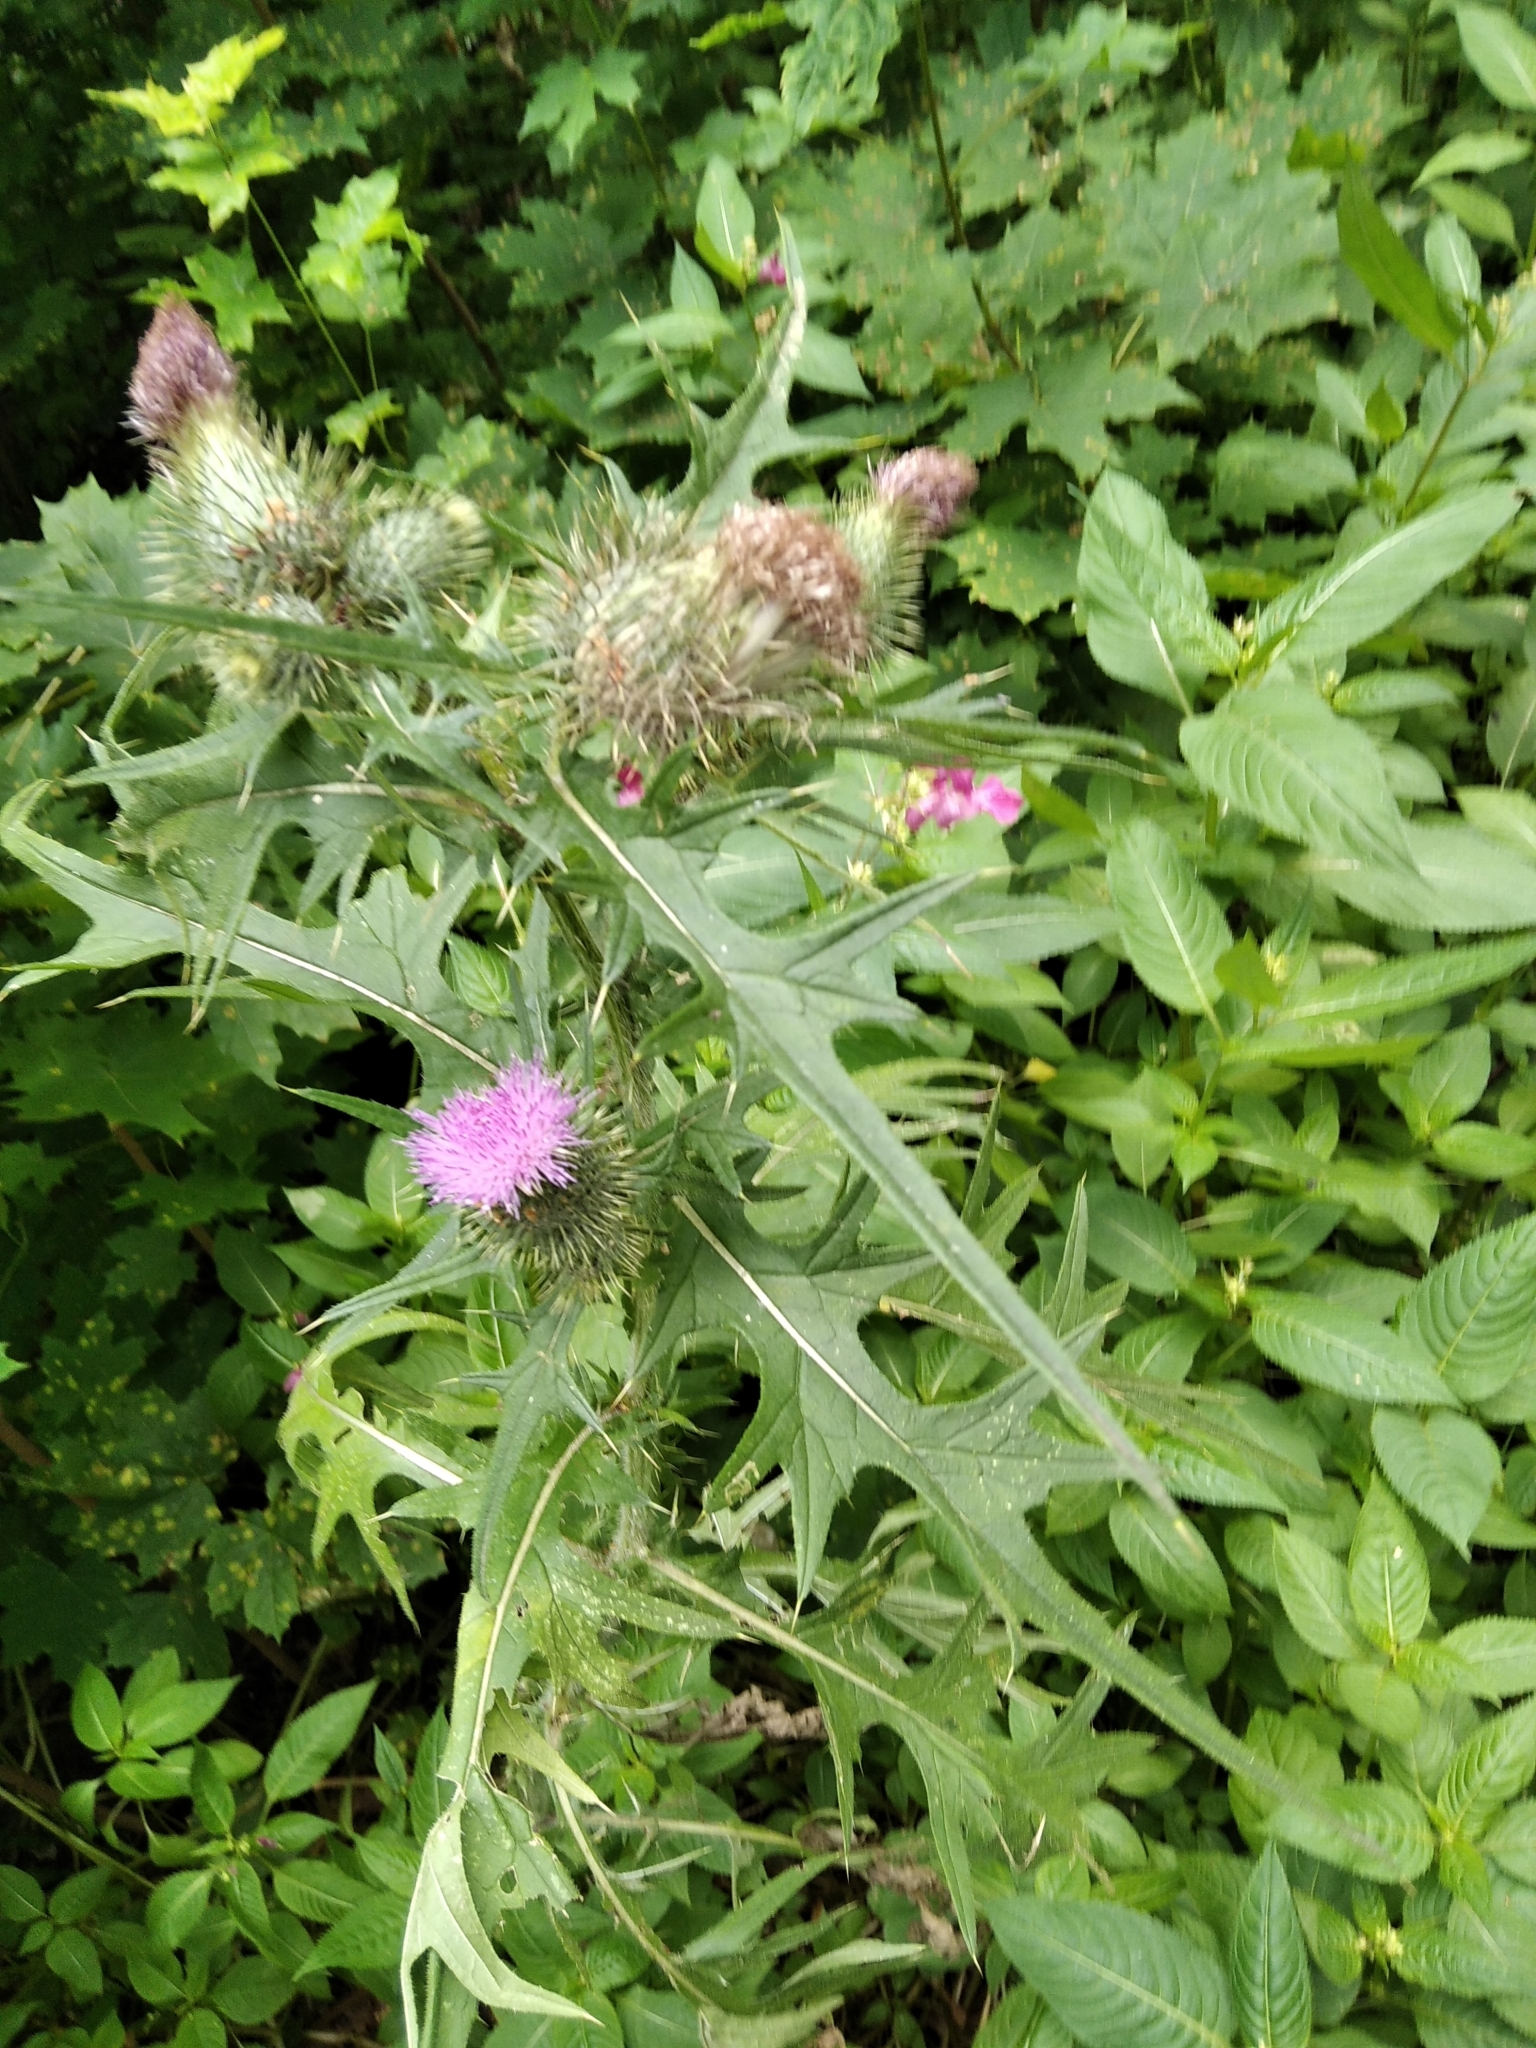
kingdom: Plantae
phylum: Tracheophyta
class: Magnoliopsida
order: Asterales
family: Asteraceae
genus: Cirsium
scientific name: Cirsium vulgare
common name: Bull thistle
